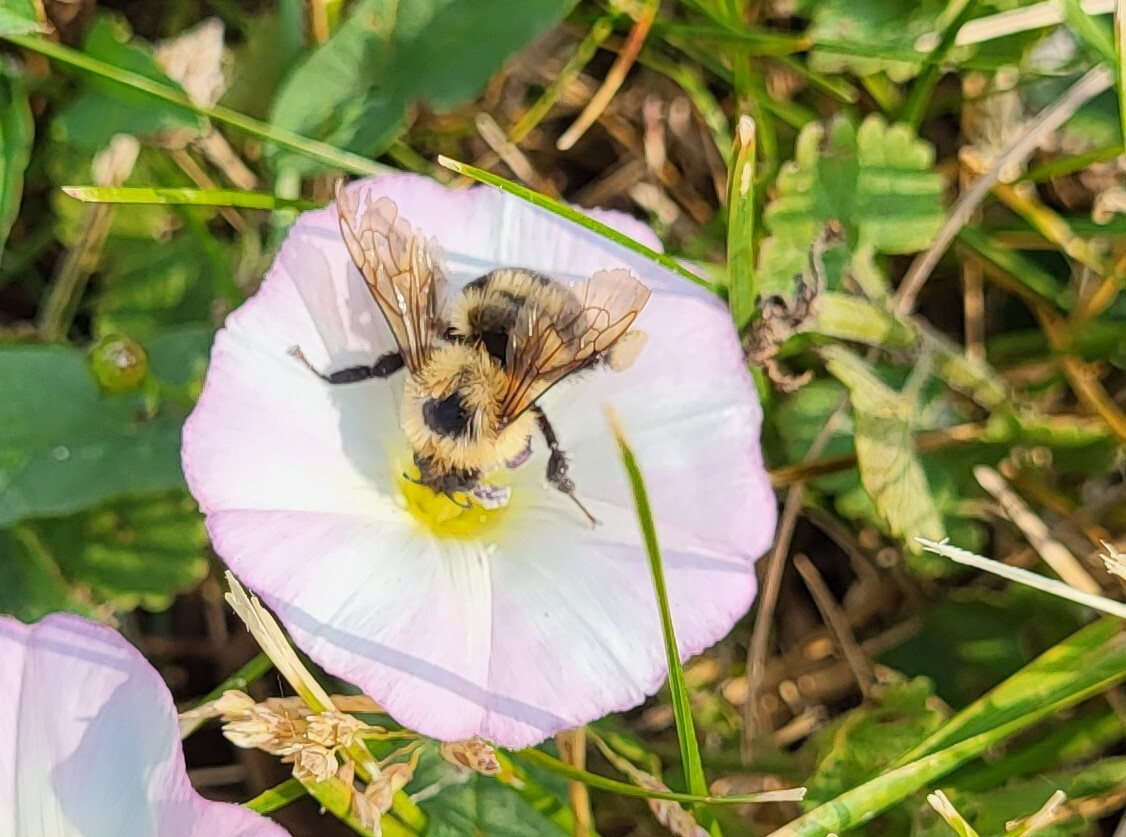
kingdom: Animalia
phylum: Arthropoda
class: Insecta
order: Hymenoptera
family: Apidae
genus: Bombus
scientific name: Bombus bimaculatus
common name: Two-spotted bumble bee
